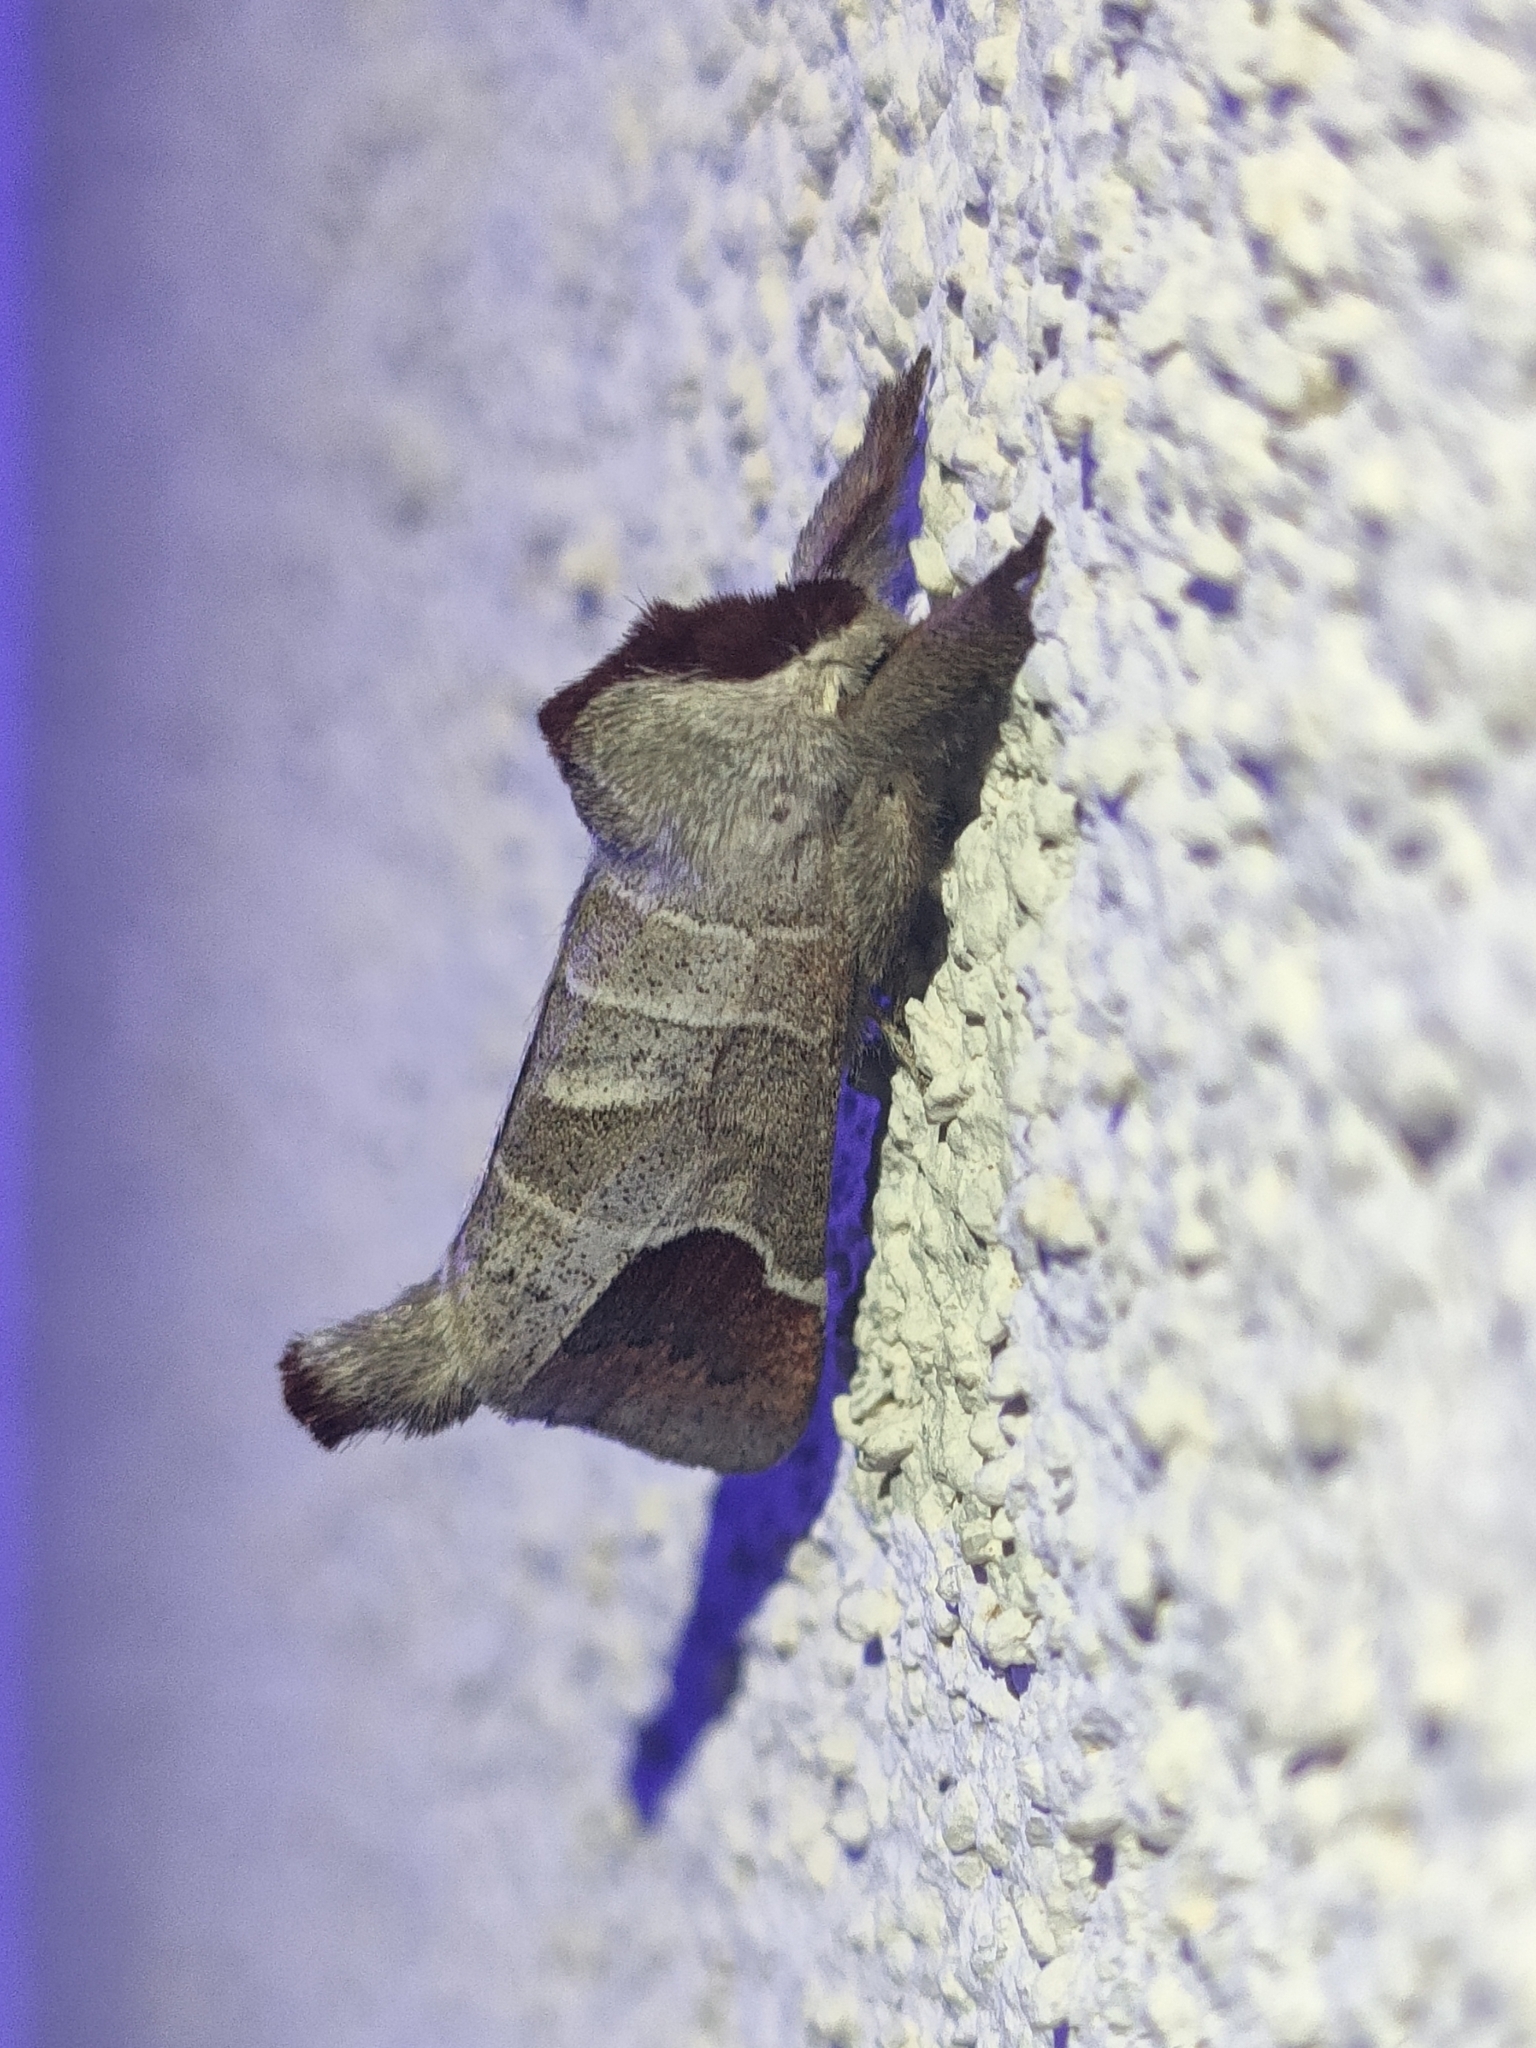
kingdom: Animalia
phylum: Arthropoda
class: Insecta
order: Lepidoptera
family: Notodontidae
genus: Clostera
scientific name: Clostera curtula
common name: Chocolate-tip
